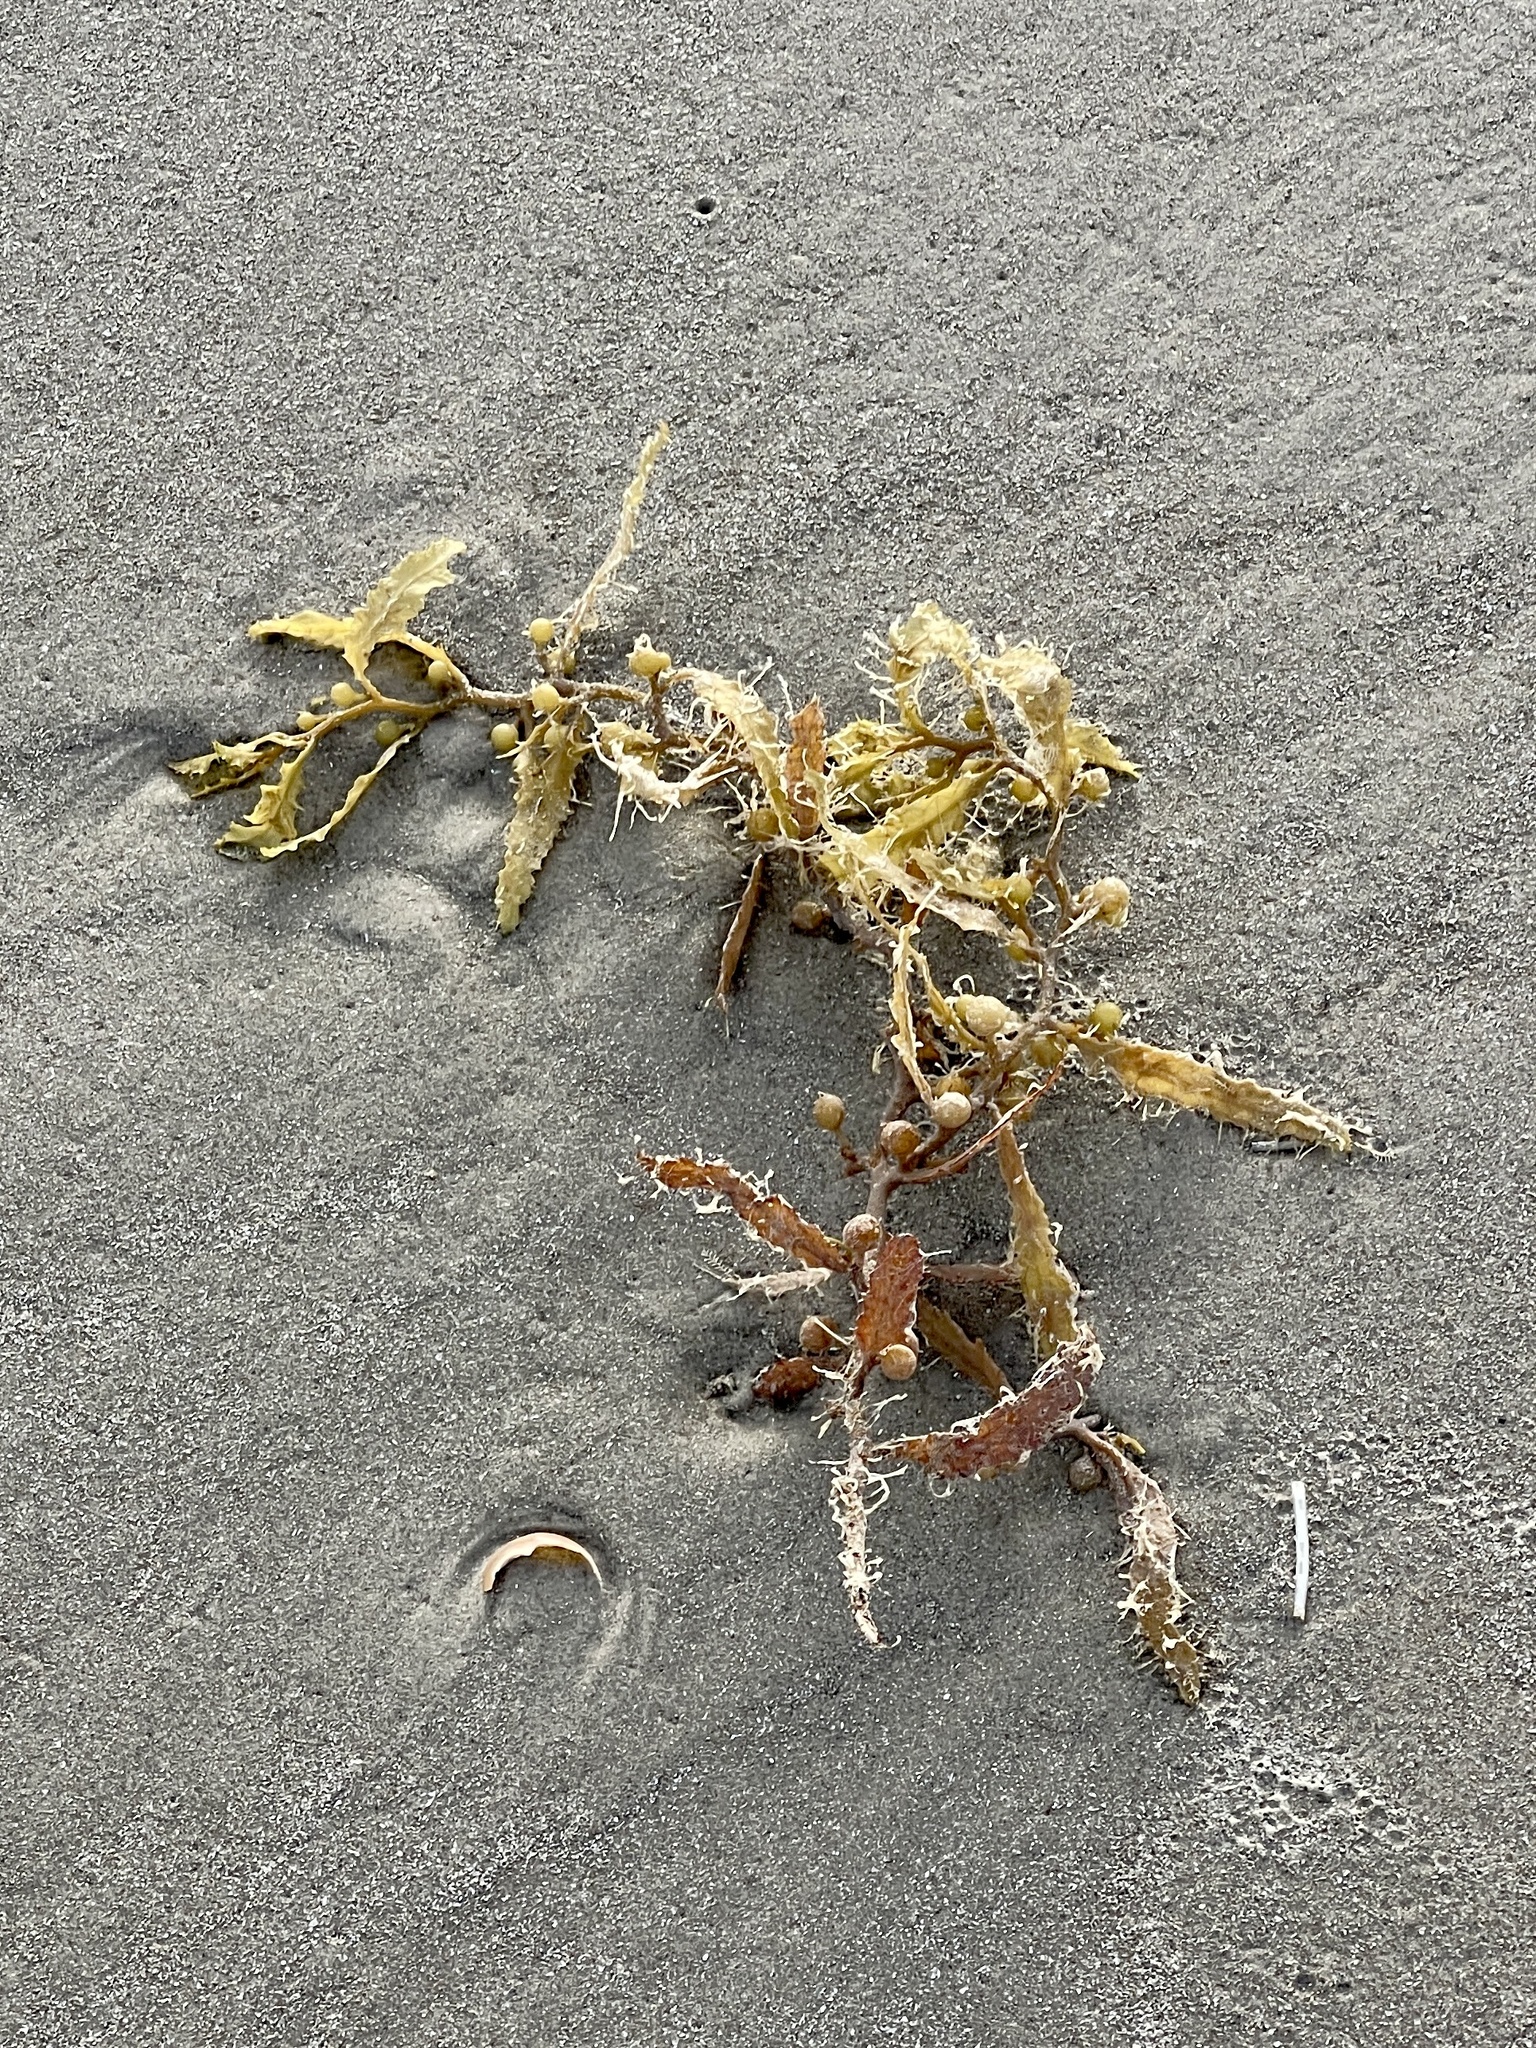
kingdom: Chromista
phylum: Ochrophyta
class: Phaeophyceae
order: Fucales
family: Sargassaceae
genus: Sargassum
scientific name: Sargassum fluitans
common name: Sargassum seaweed
